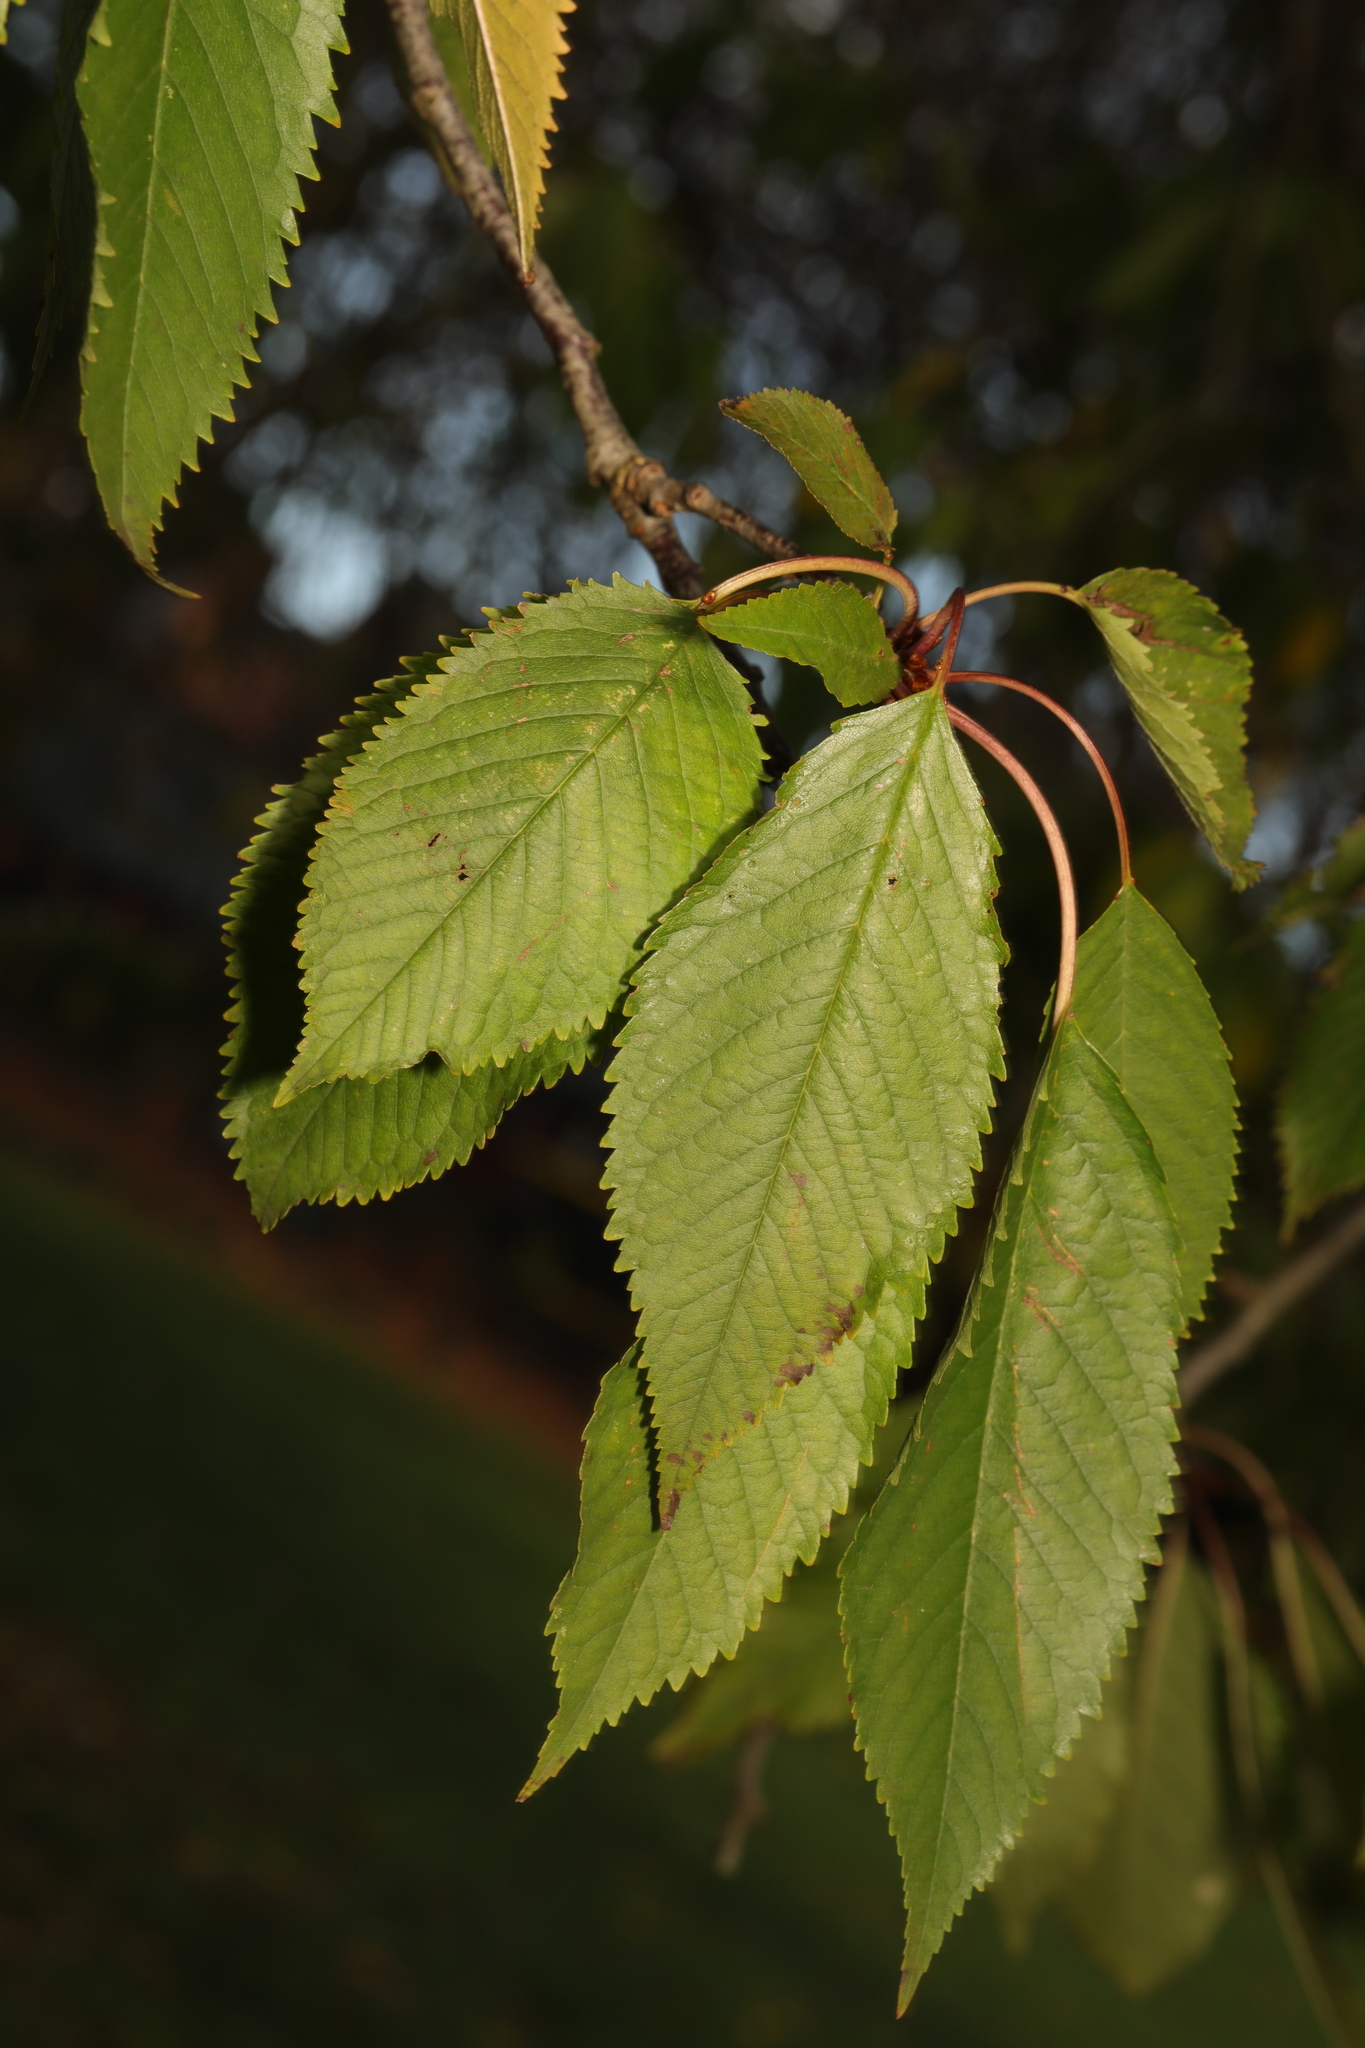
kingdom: Plantae
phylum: Tracheophyta
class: Magnoliopsida
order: Rosales
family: Rosaceae
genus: Prunus
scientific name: Prunus avium
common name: Sweet cherry
